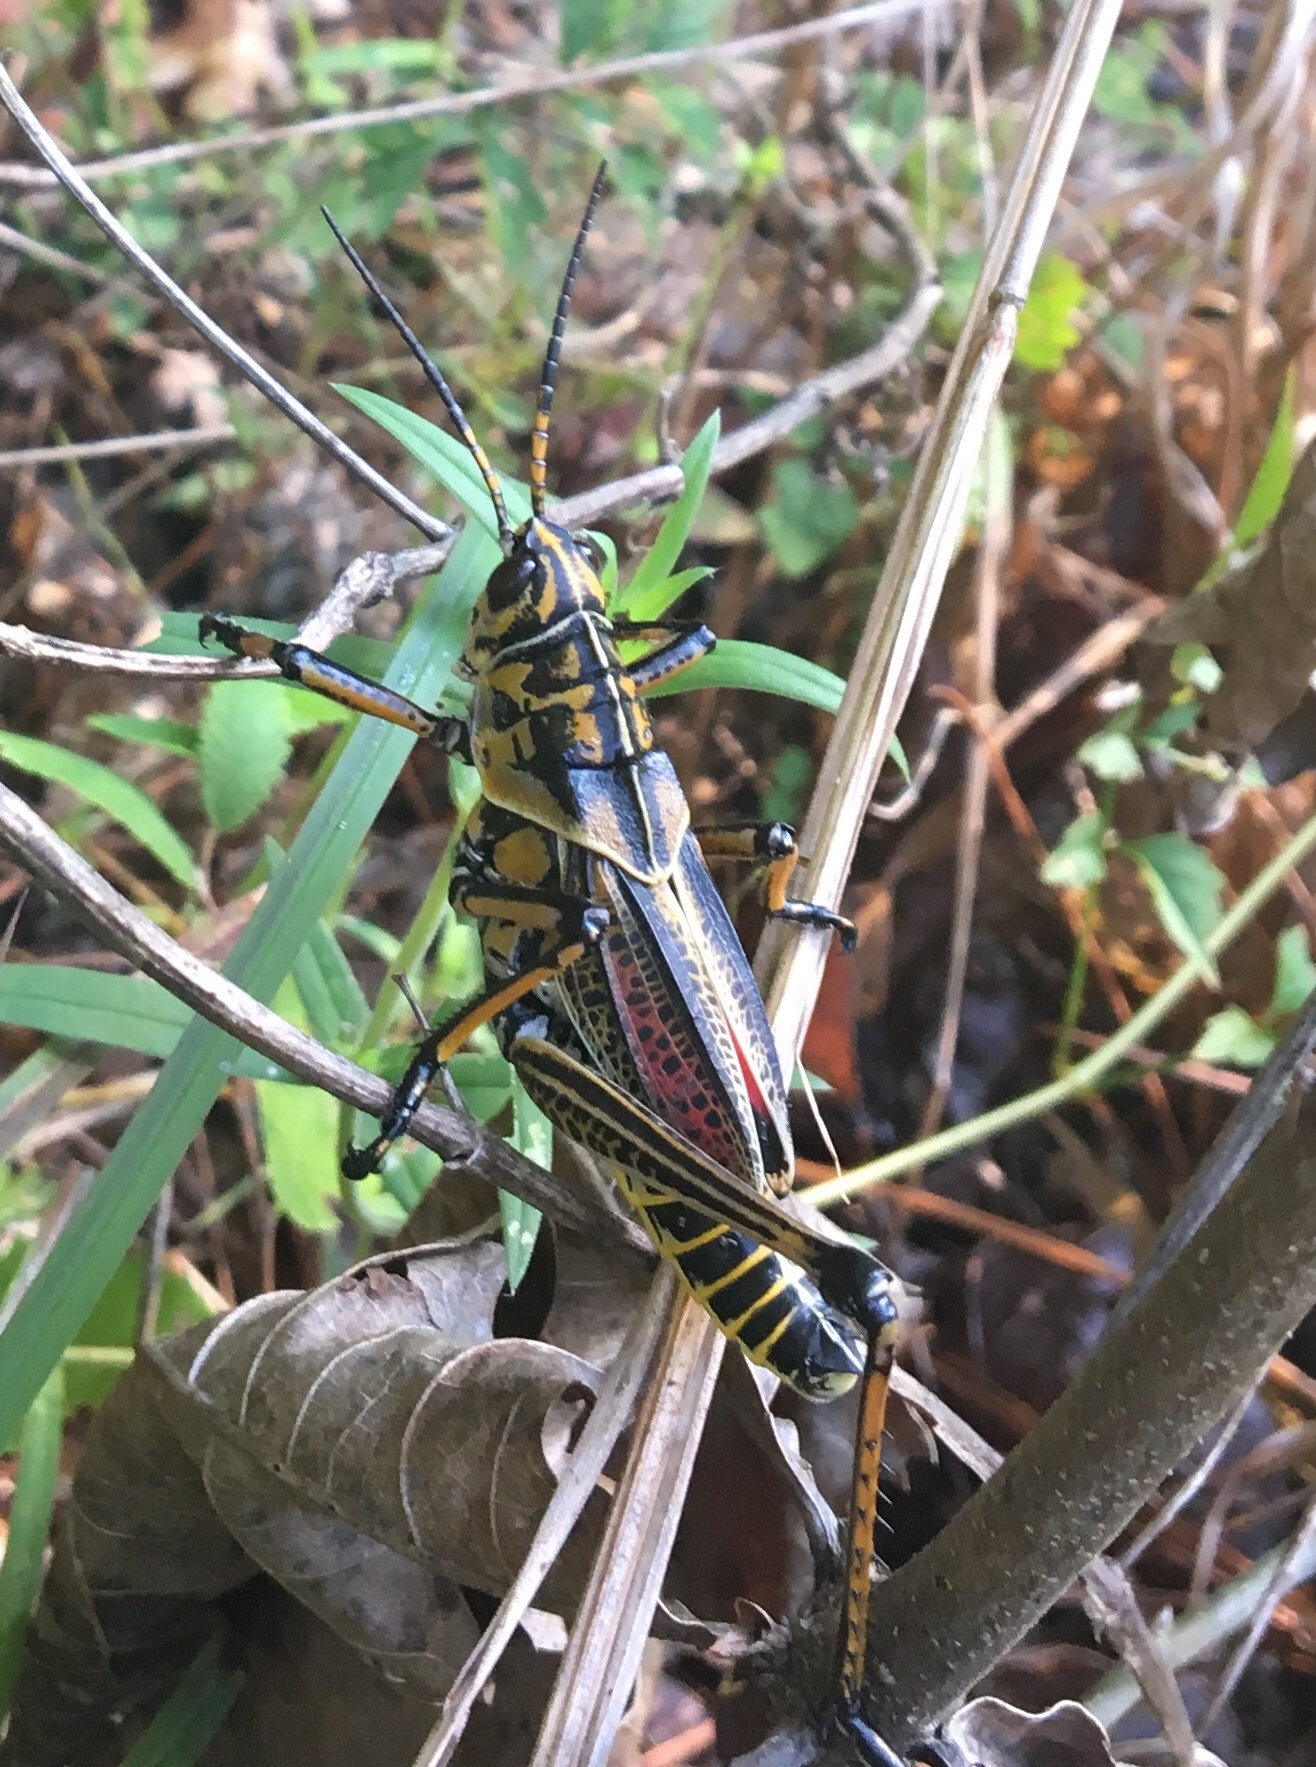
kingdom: Animalia
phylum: Arthropoda
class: Insecta
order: Orthoptera
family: Romaleidae
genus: Romalea
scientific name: Romalea microptera
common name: Eastern lubber grasshopper
